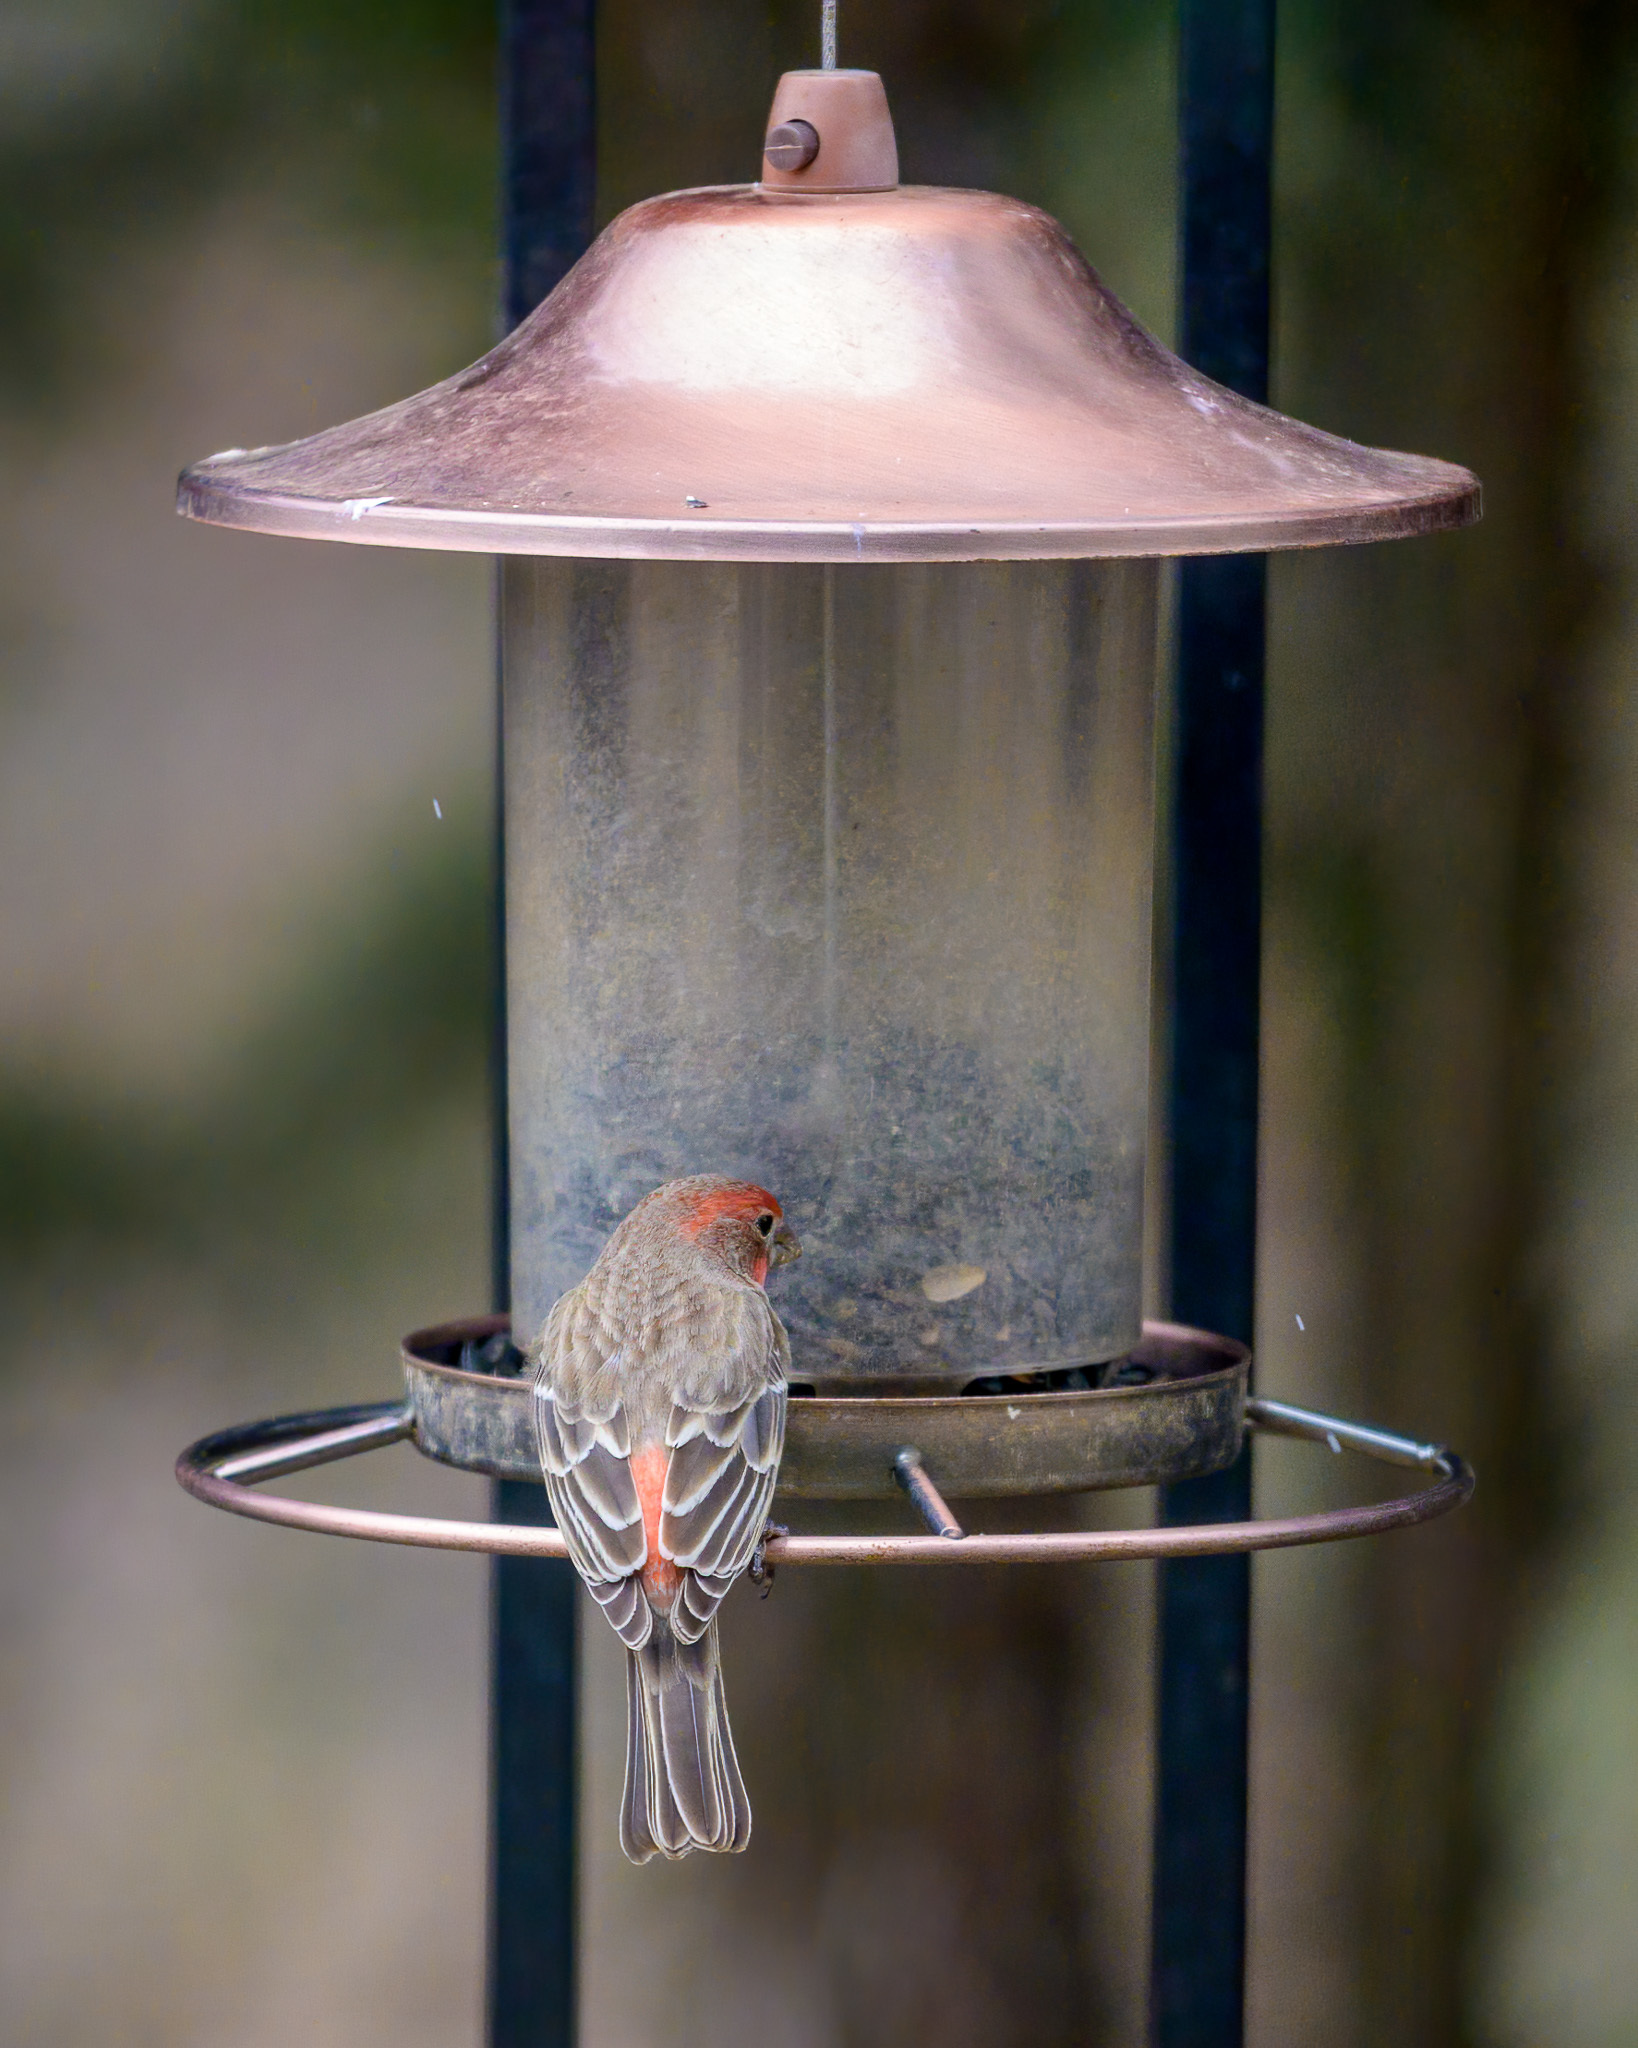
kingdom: Animalia
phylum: Chordata
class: Aves
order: Passeriformes
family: Fringillidae
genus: Haemorhous
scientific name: Haemorhous mexicanus
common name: House finch
